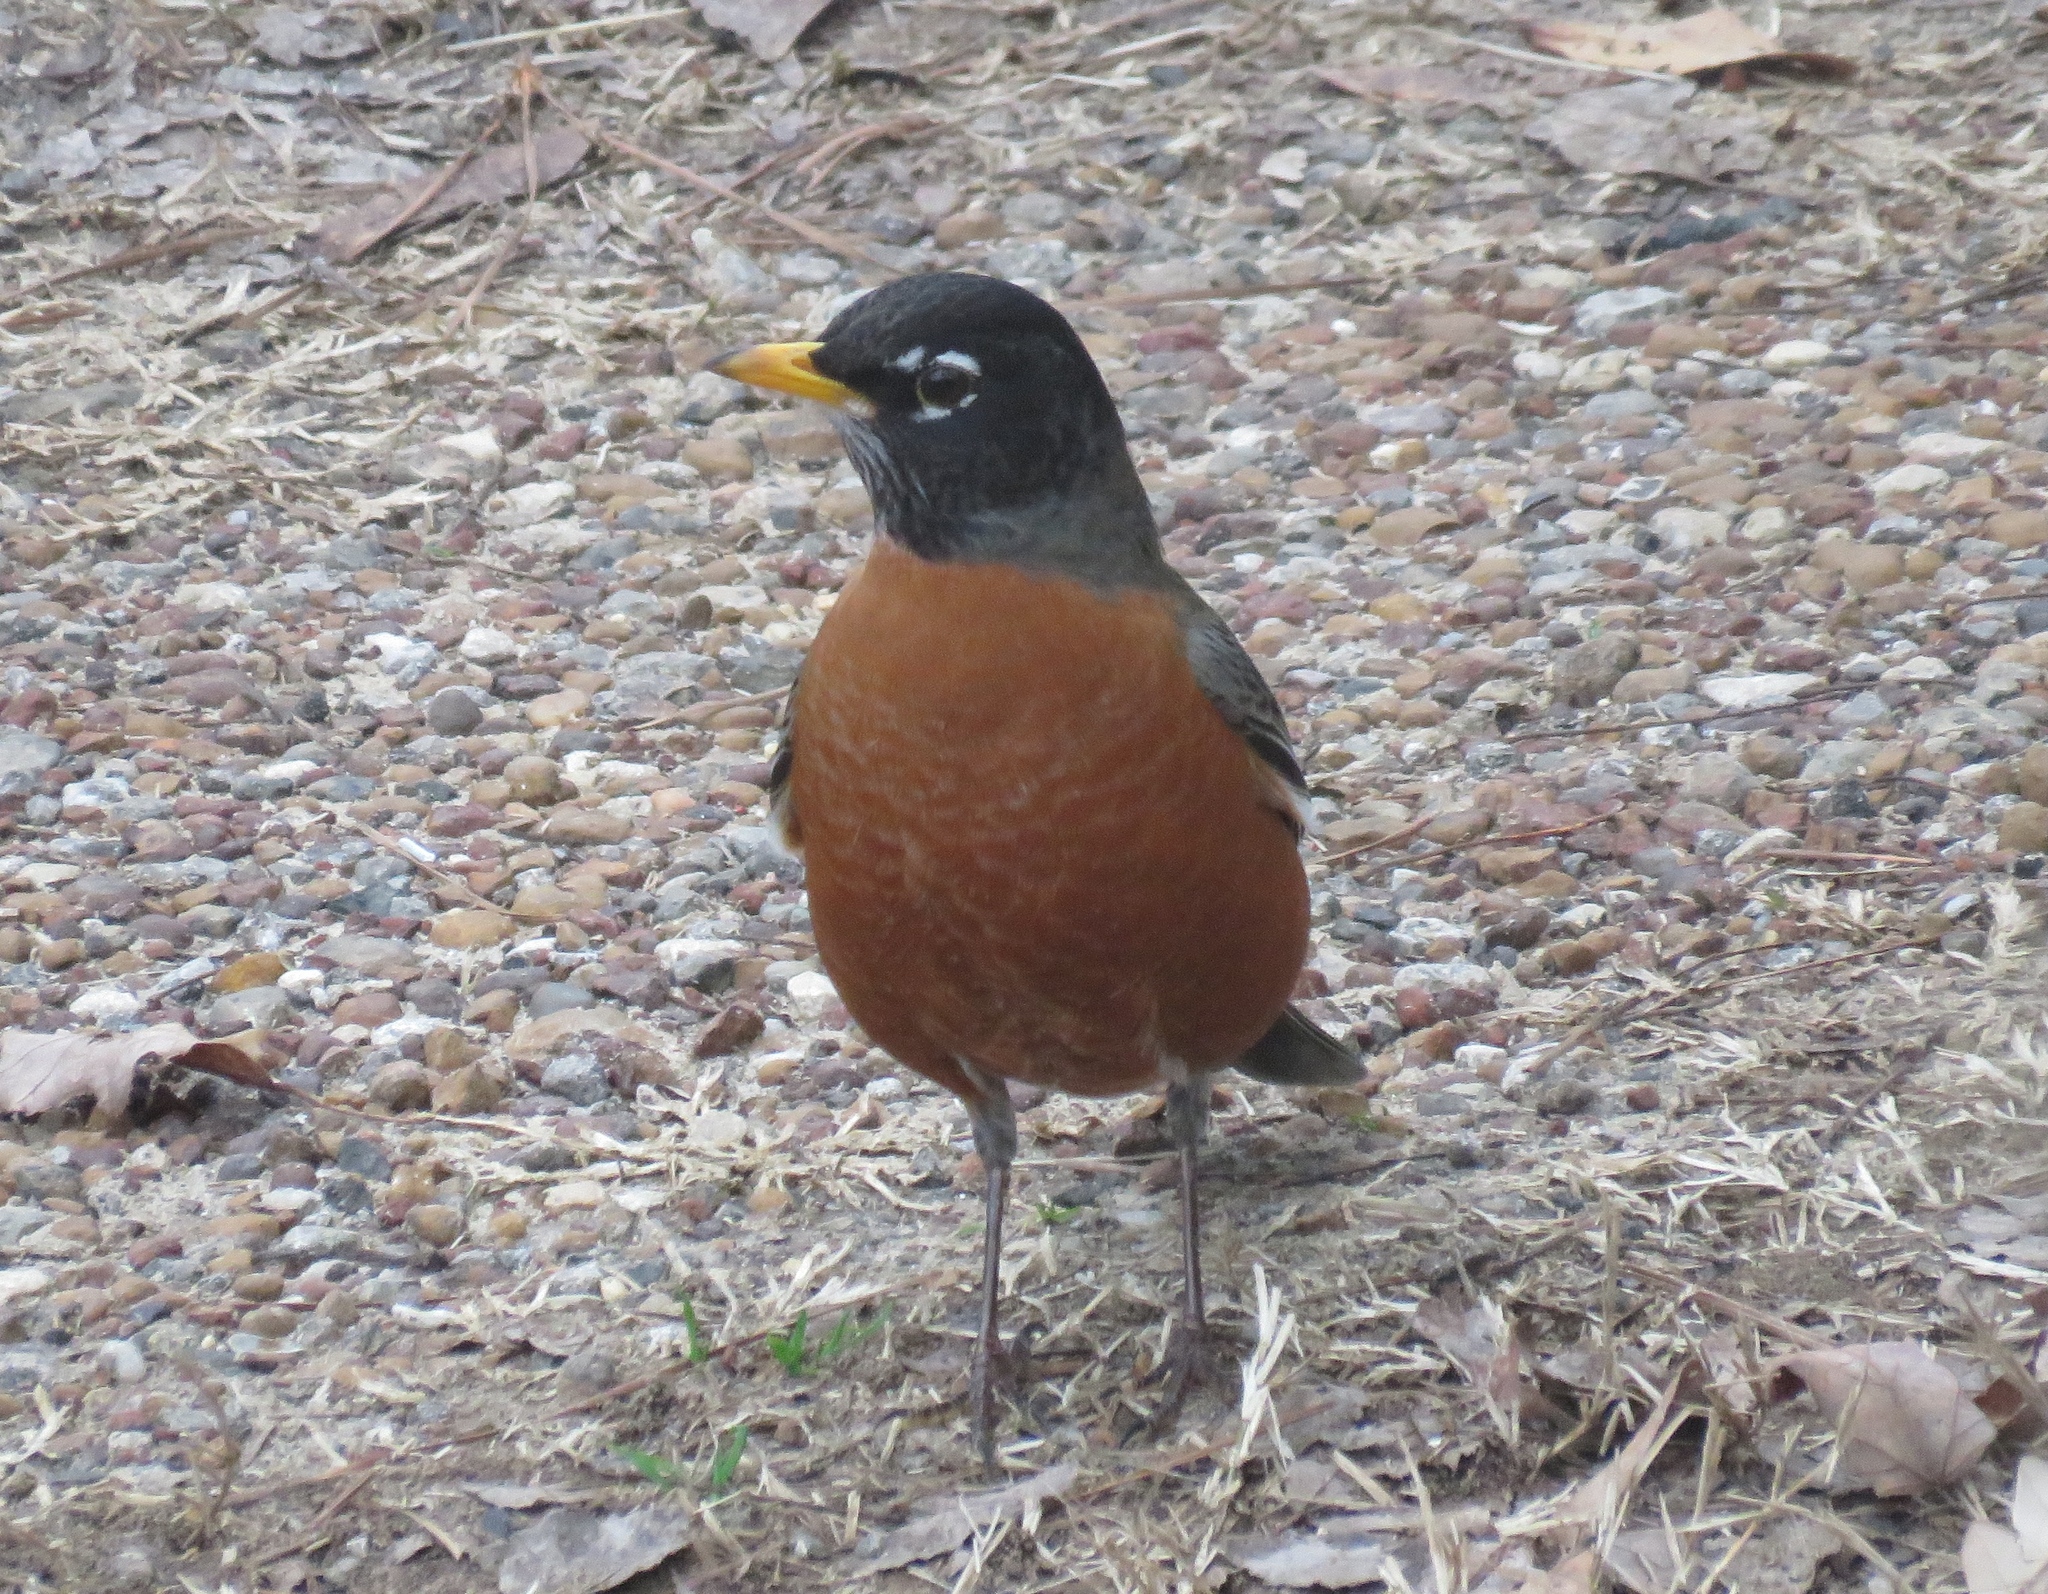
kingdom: Animalia
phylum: Chordata
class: Aves
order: Passeriformes
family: Turdidae
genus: Turdus
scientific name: Turdus migratorius
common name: American robin
